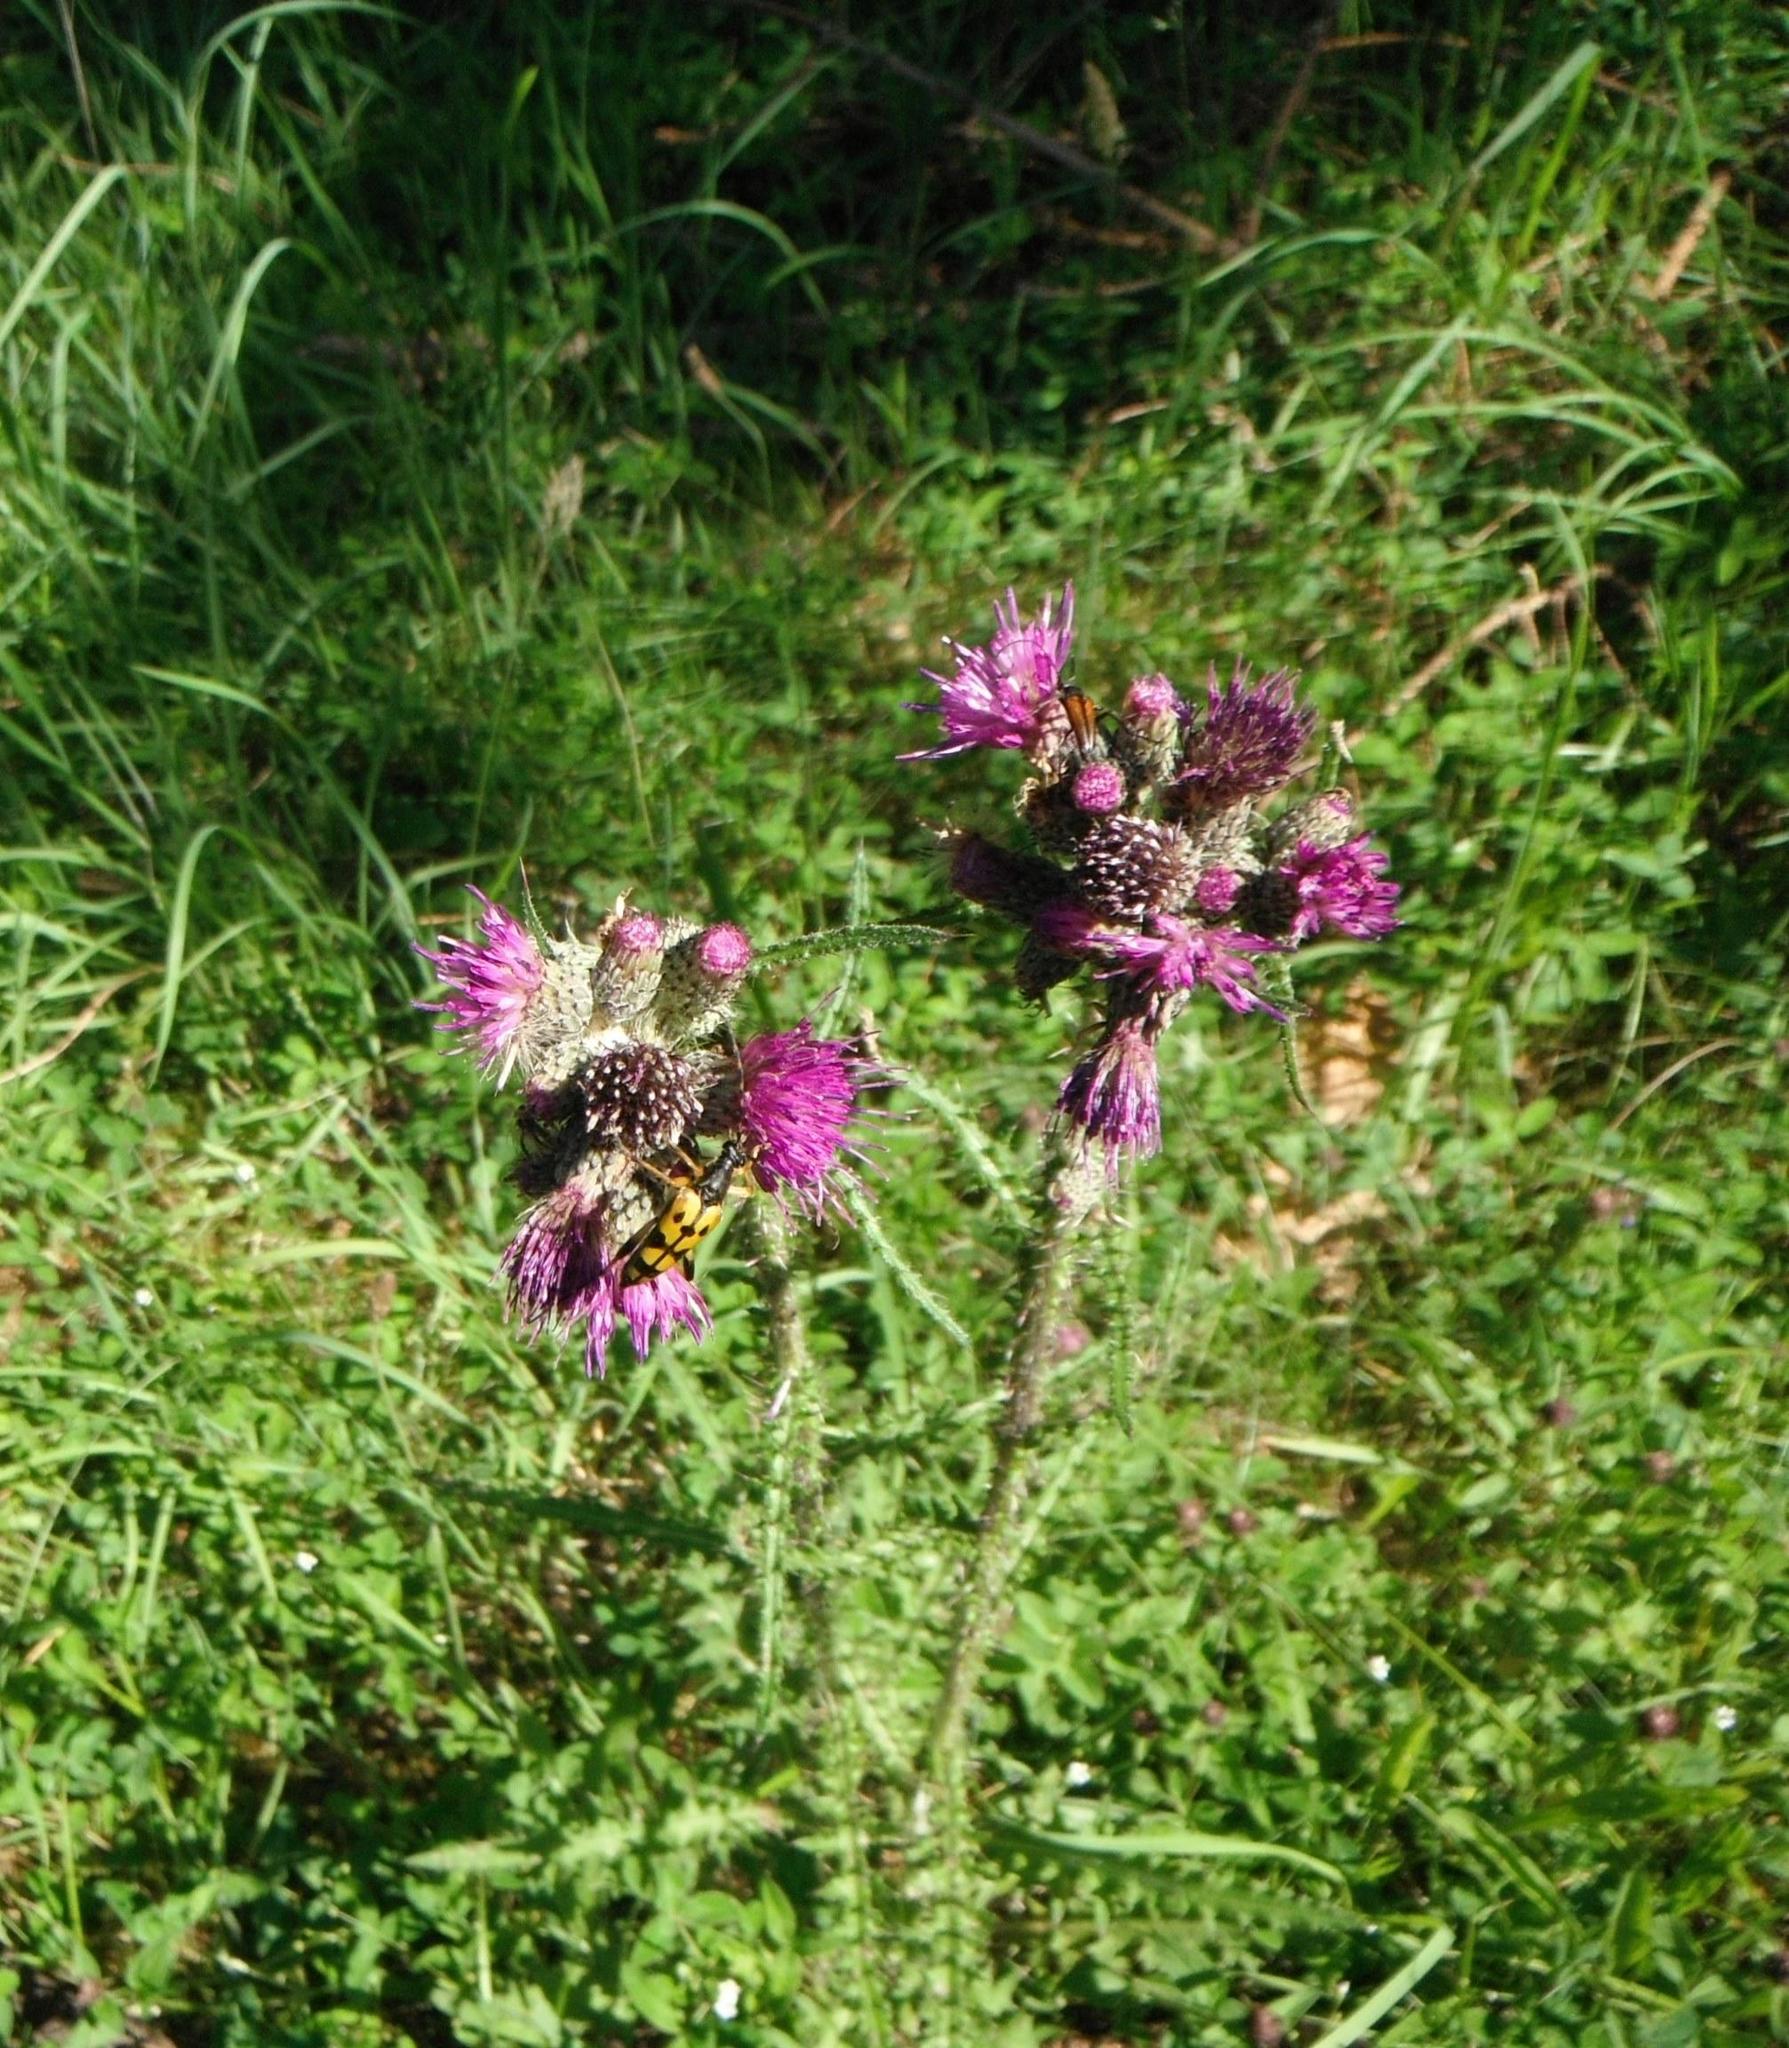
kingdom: Plantae
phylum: Tracheophyta
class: Magnoliopsida
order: Asterales
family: Asteraceae
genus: Cirsium
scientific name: Cirsium palustre
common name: Marsh thistle
